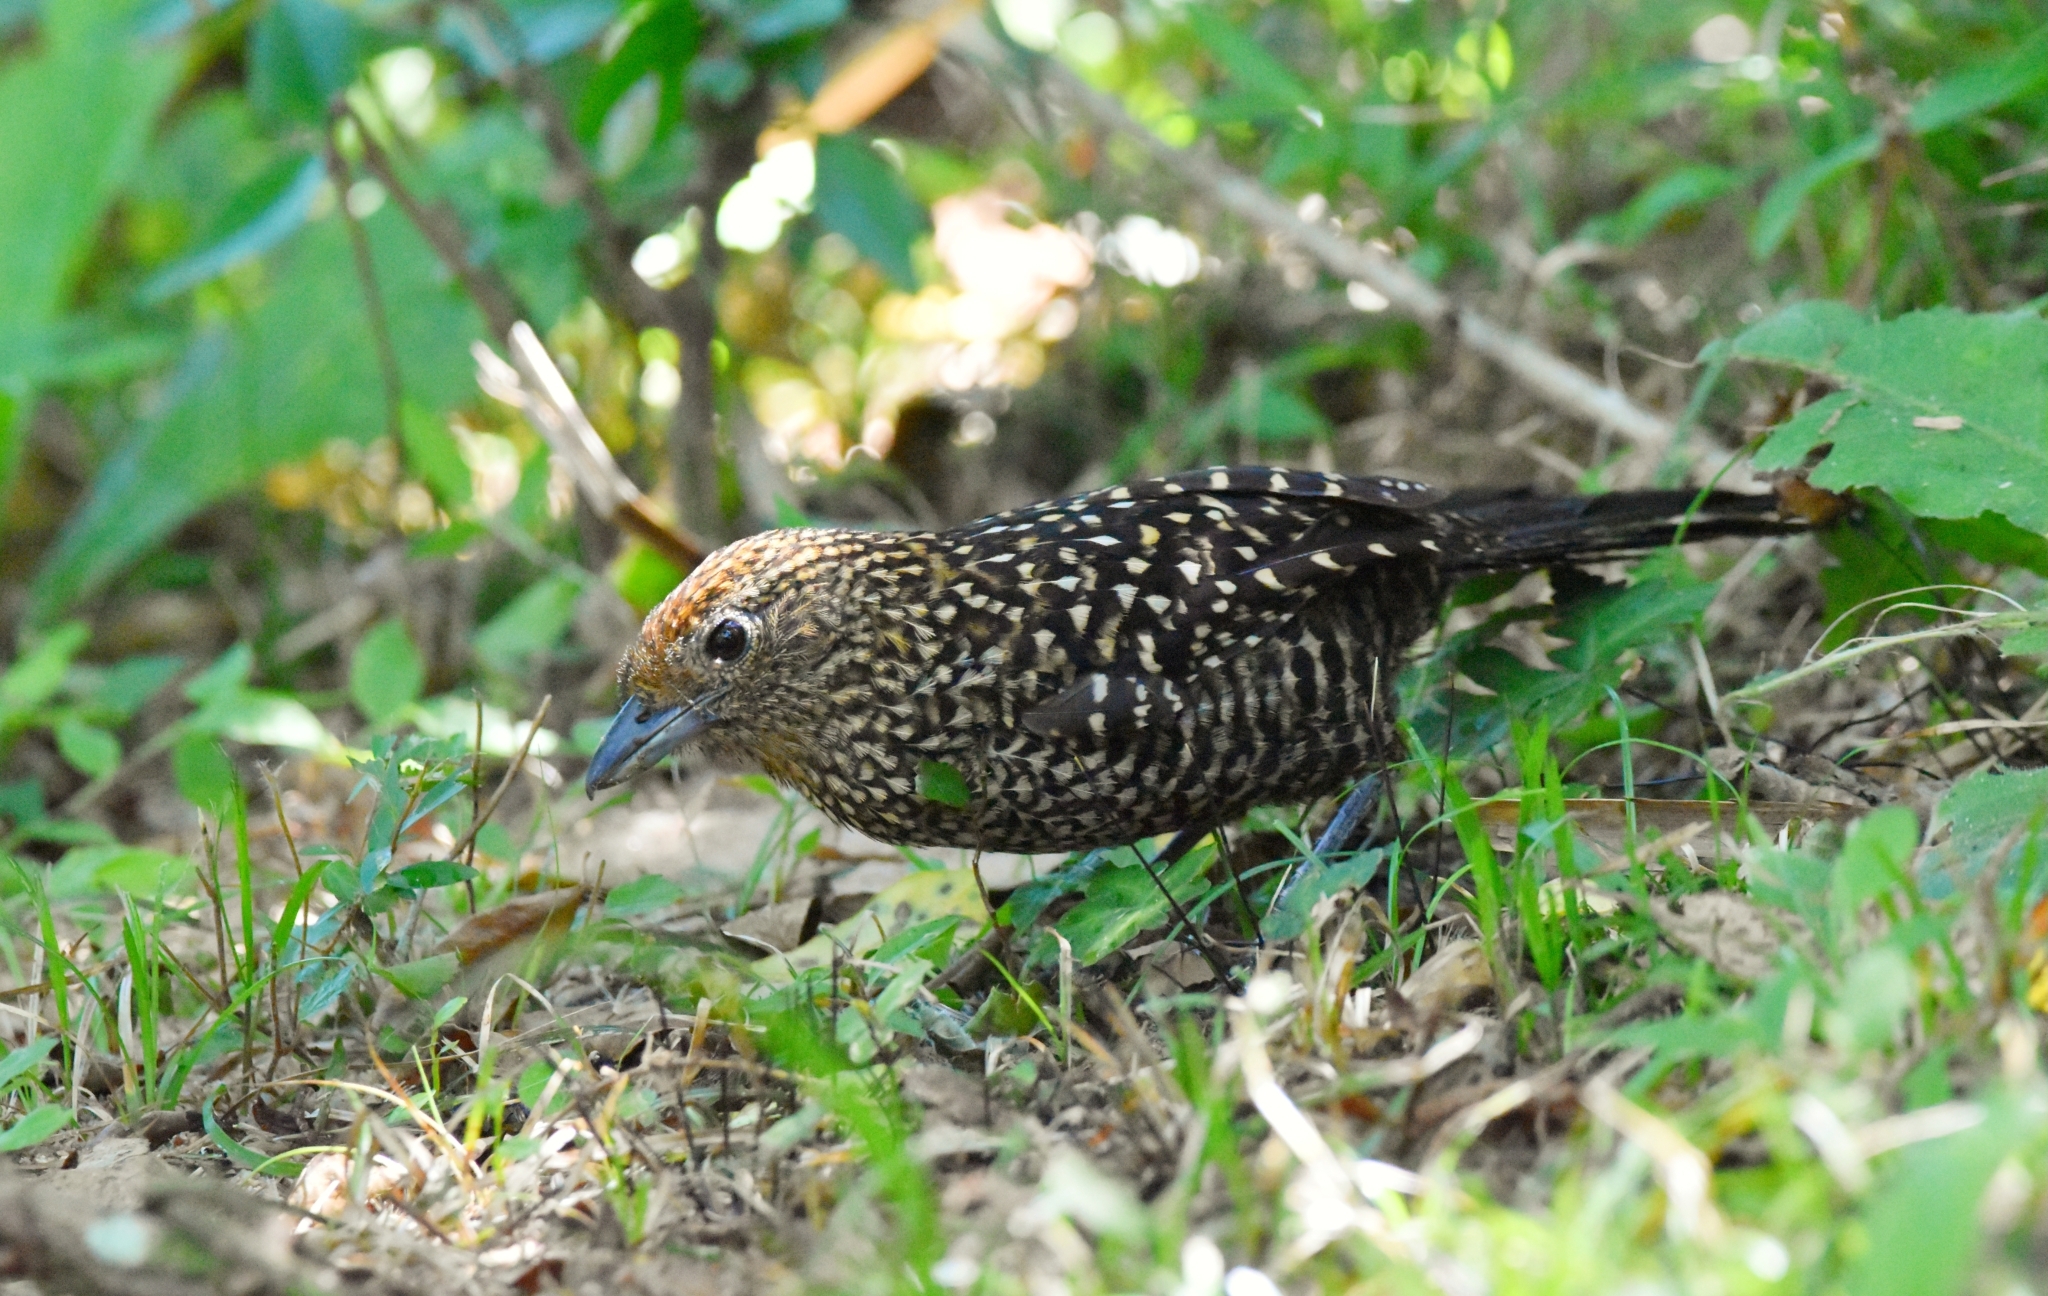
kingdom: Animalia
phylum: Chordata
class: Aves
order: Passeriformes
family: Thamnophilidae
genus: Mackenziaena
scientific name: Mackenziaena leachii
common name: Large-tailed antshrike
